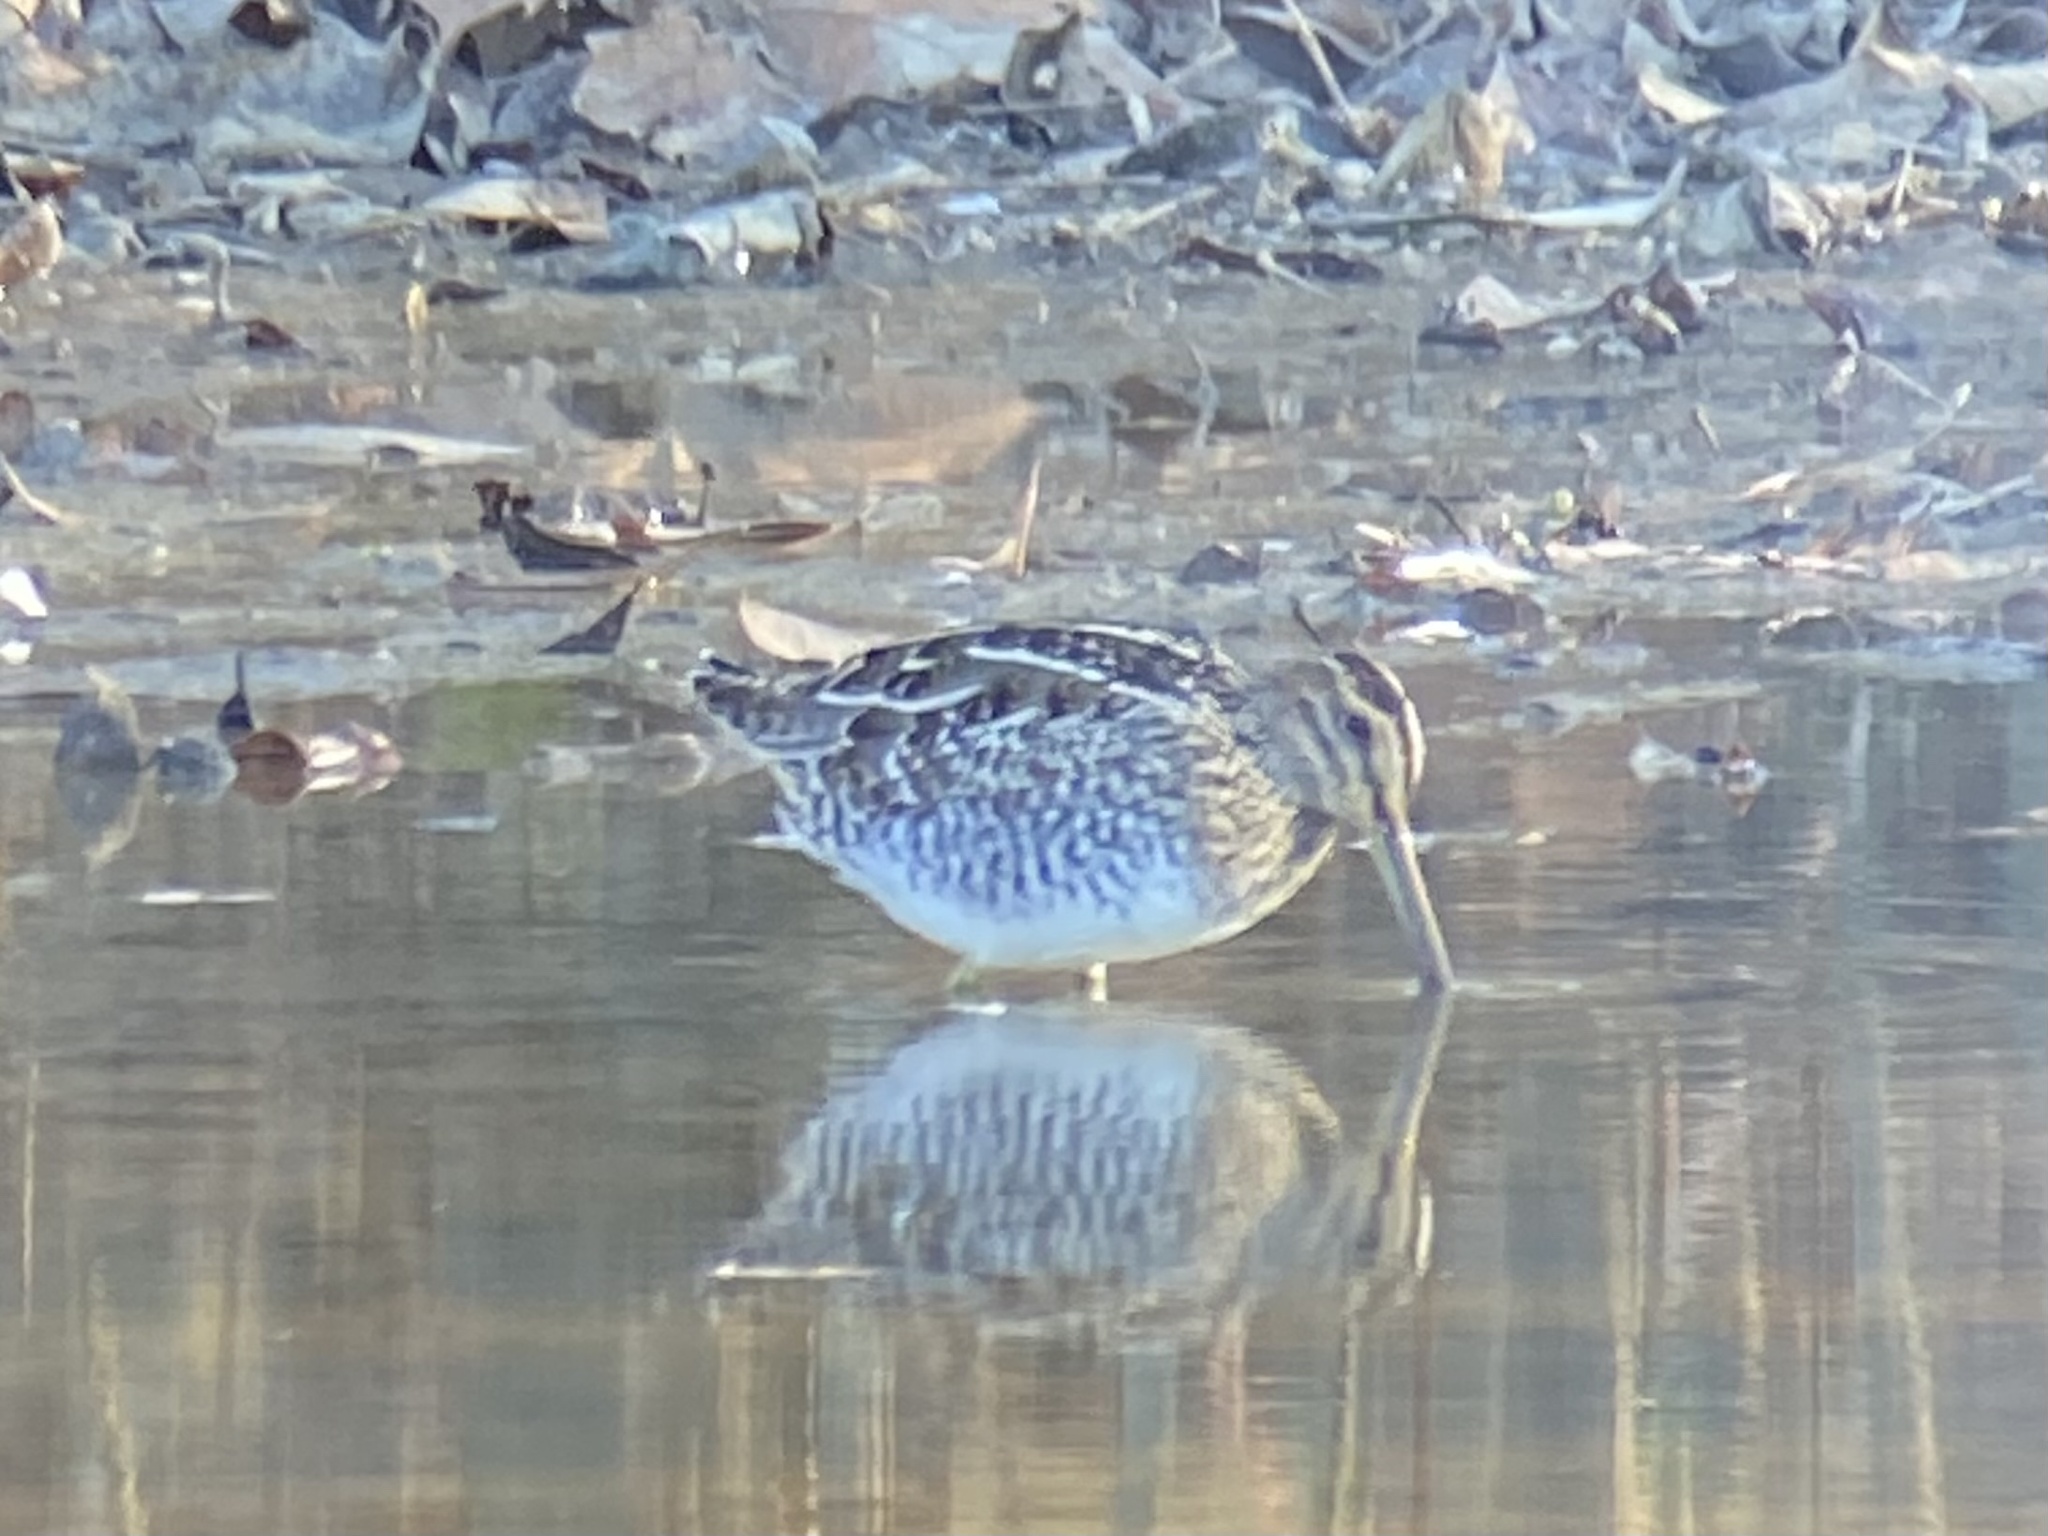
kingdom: Animalia
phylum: Chordata
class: Aves
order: Charadriiformes
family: Scolopacidae
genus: Gallinago
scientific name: Gallinago delicata
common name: Wilson's snipe
